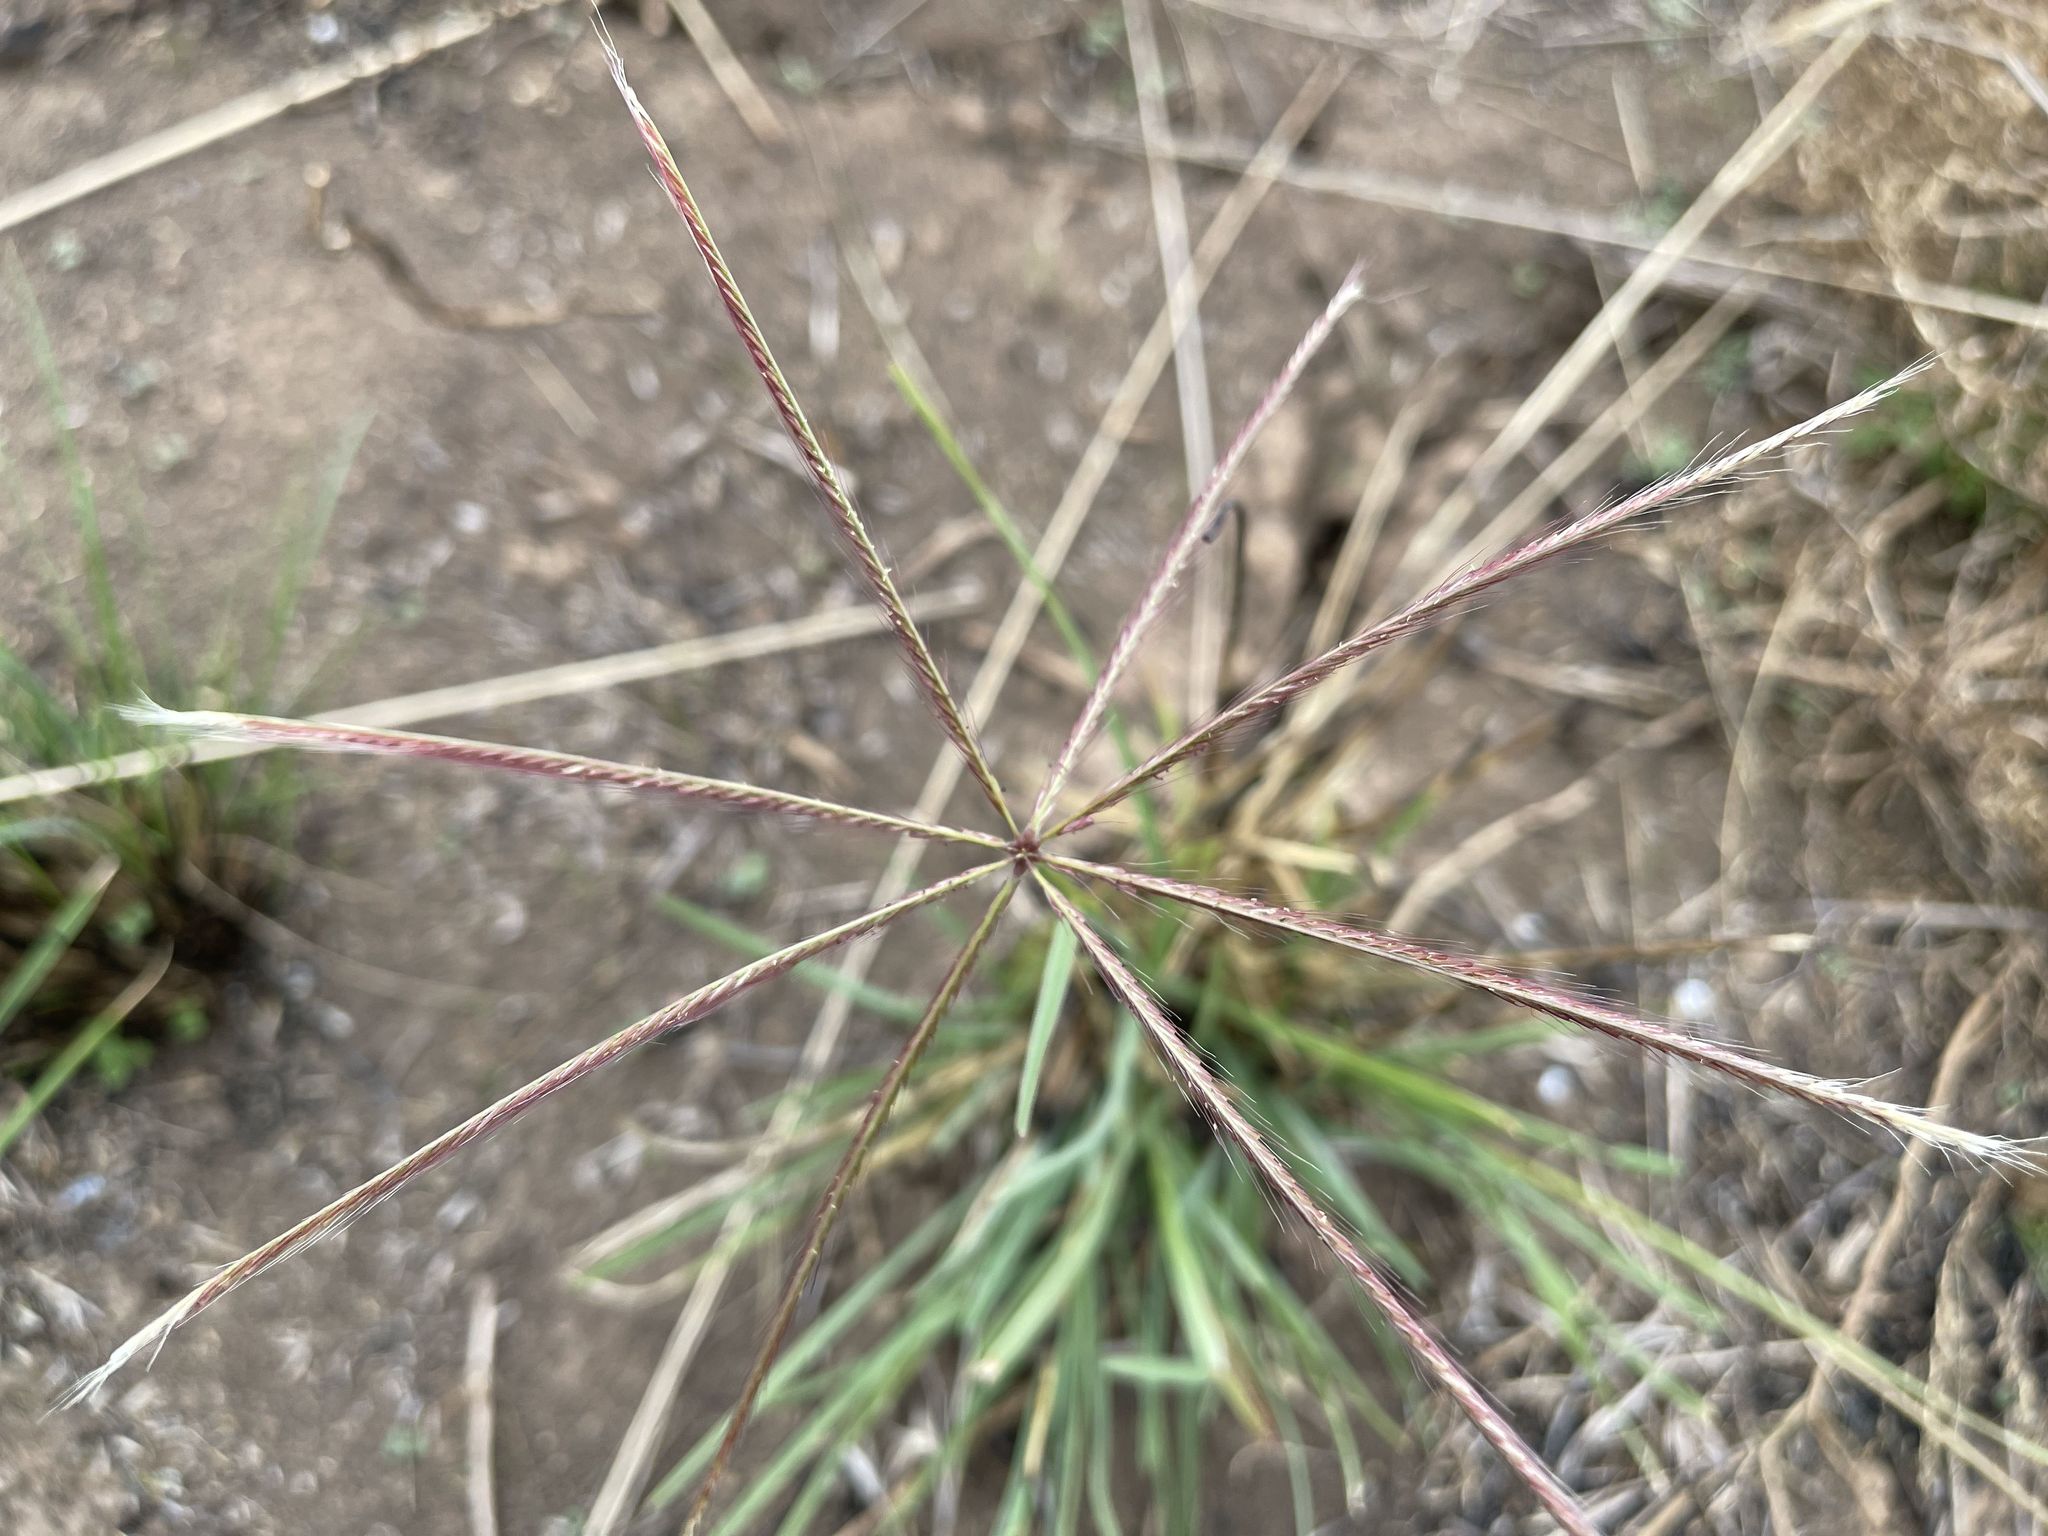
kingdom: Plantae
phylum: Tracheophyta
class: Liliopsida
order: Poales
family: Poaceae
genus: Chloris
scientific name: Chloris truncata
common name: Windmill-grass
